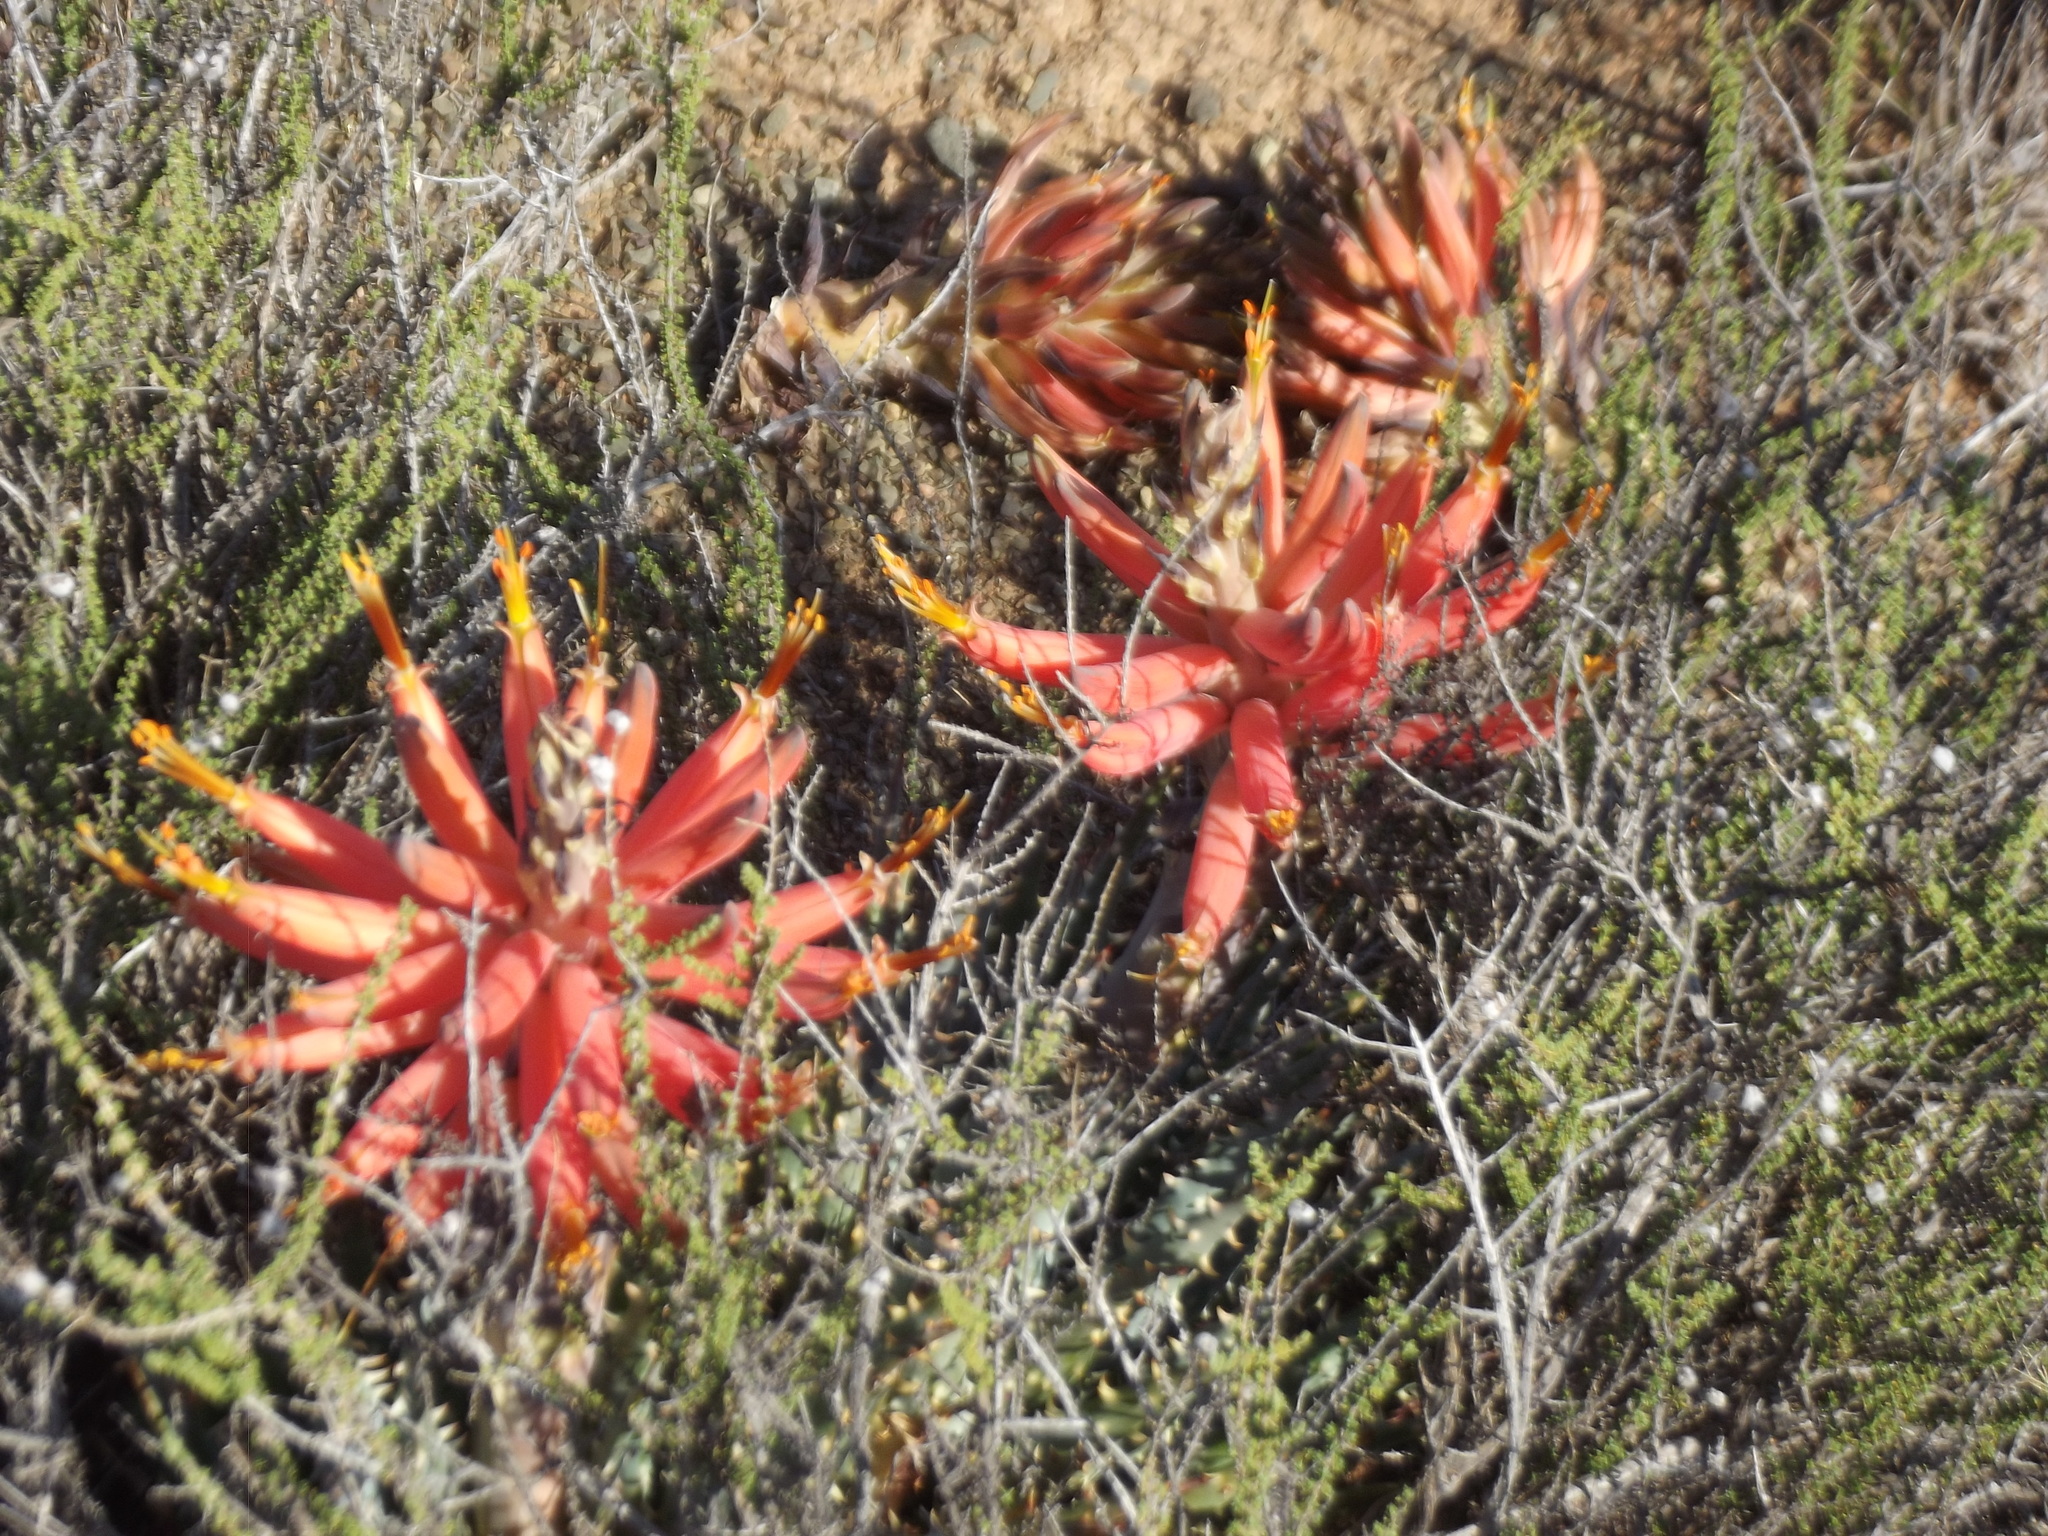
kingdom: Plantae
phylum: Tracheophyta
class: Liliopsida
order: Asparagales
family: Asphodelaceae
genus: Aloe
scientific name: Aloe longistyla
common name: Karoo aloe
